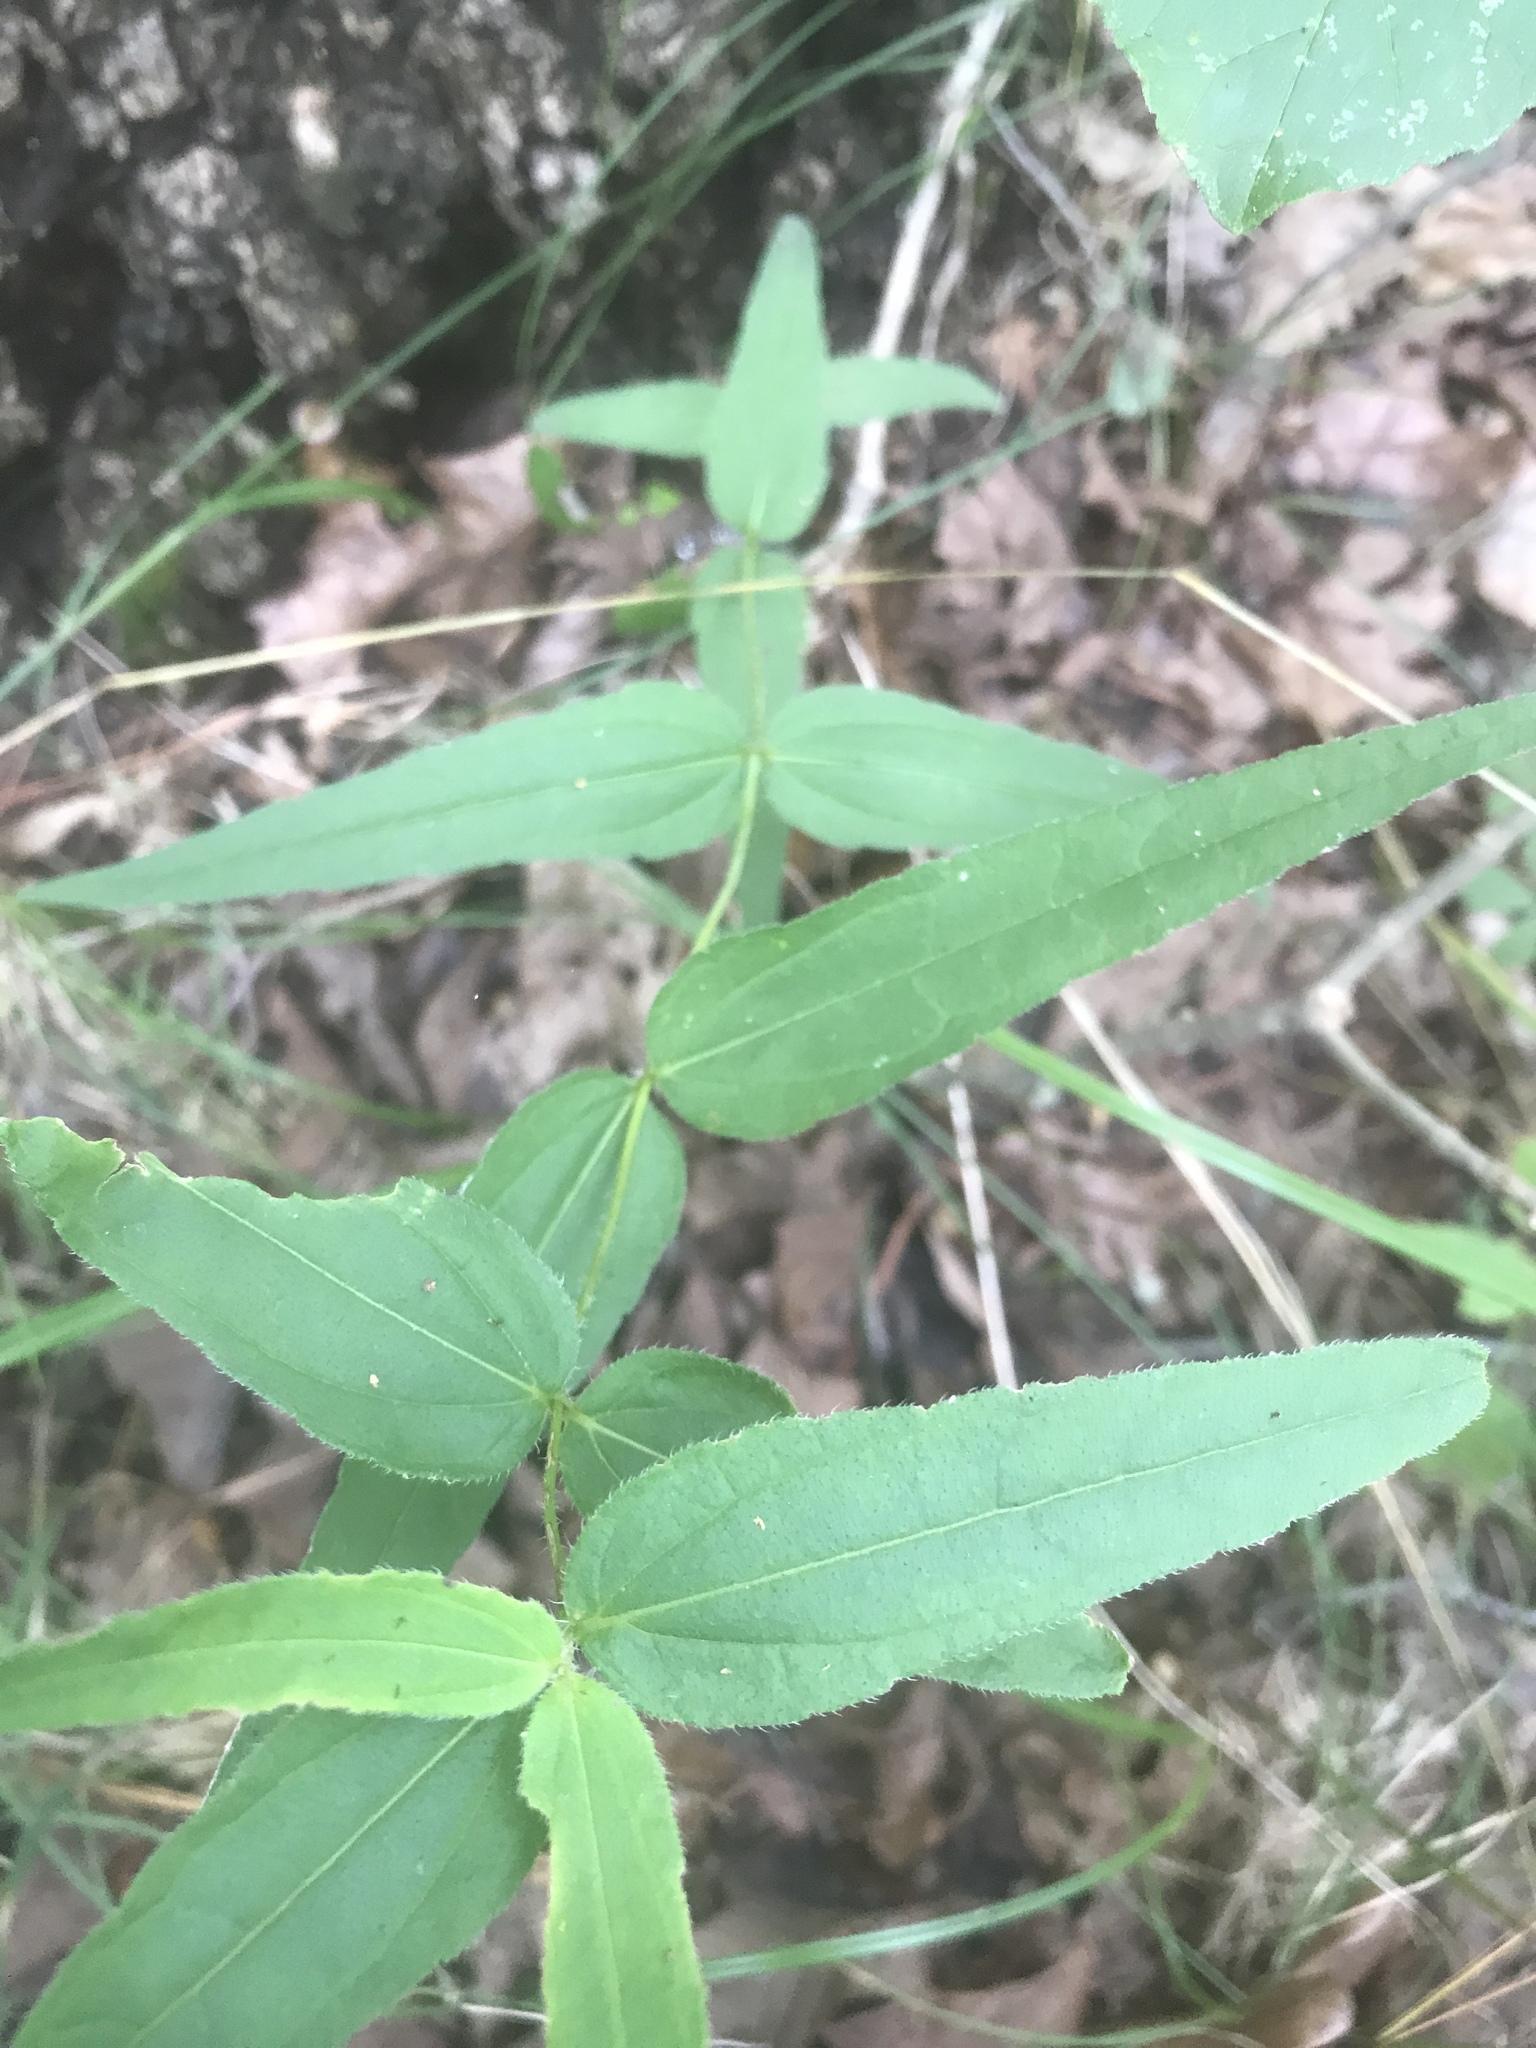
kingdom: Plantae
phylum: Tracheophyta
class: Magnoliopsida
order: Asterales
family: Asteraceae
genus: Eupatorium
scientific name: Eupatorium sessilifolium
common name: Upland boneset
